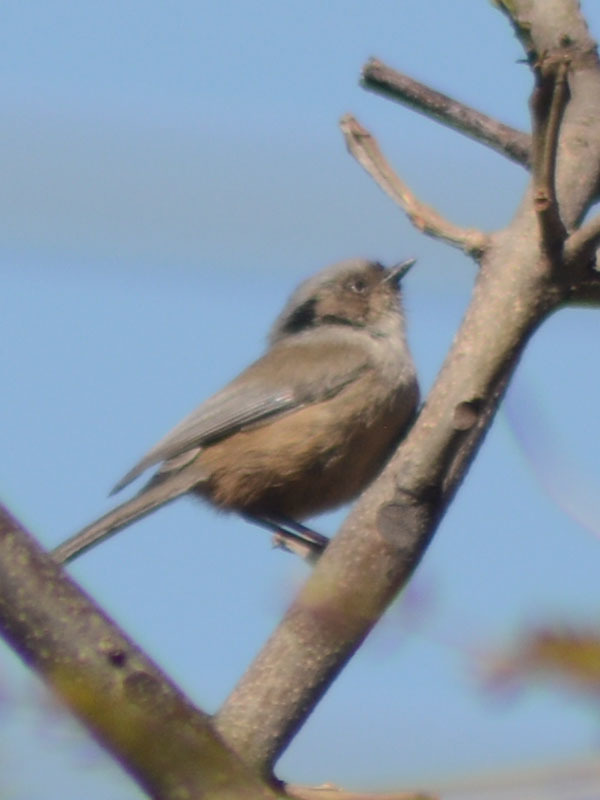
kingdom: Animalia
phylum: Chordata
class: Aves
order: Passeriformes
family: Aegithalidae
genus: Psaltriparus
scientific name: Psaltriparus minimus
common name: American bushtit
